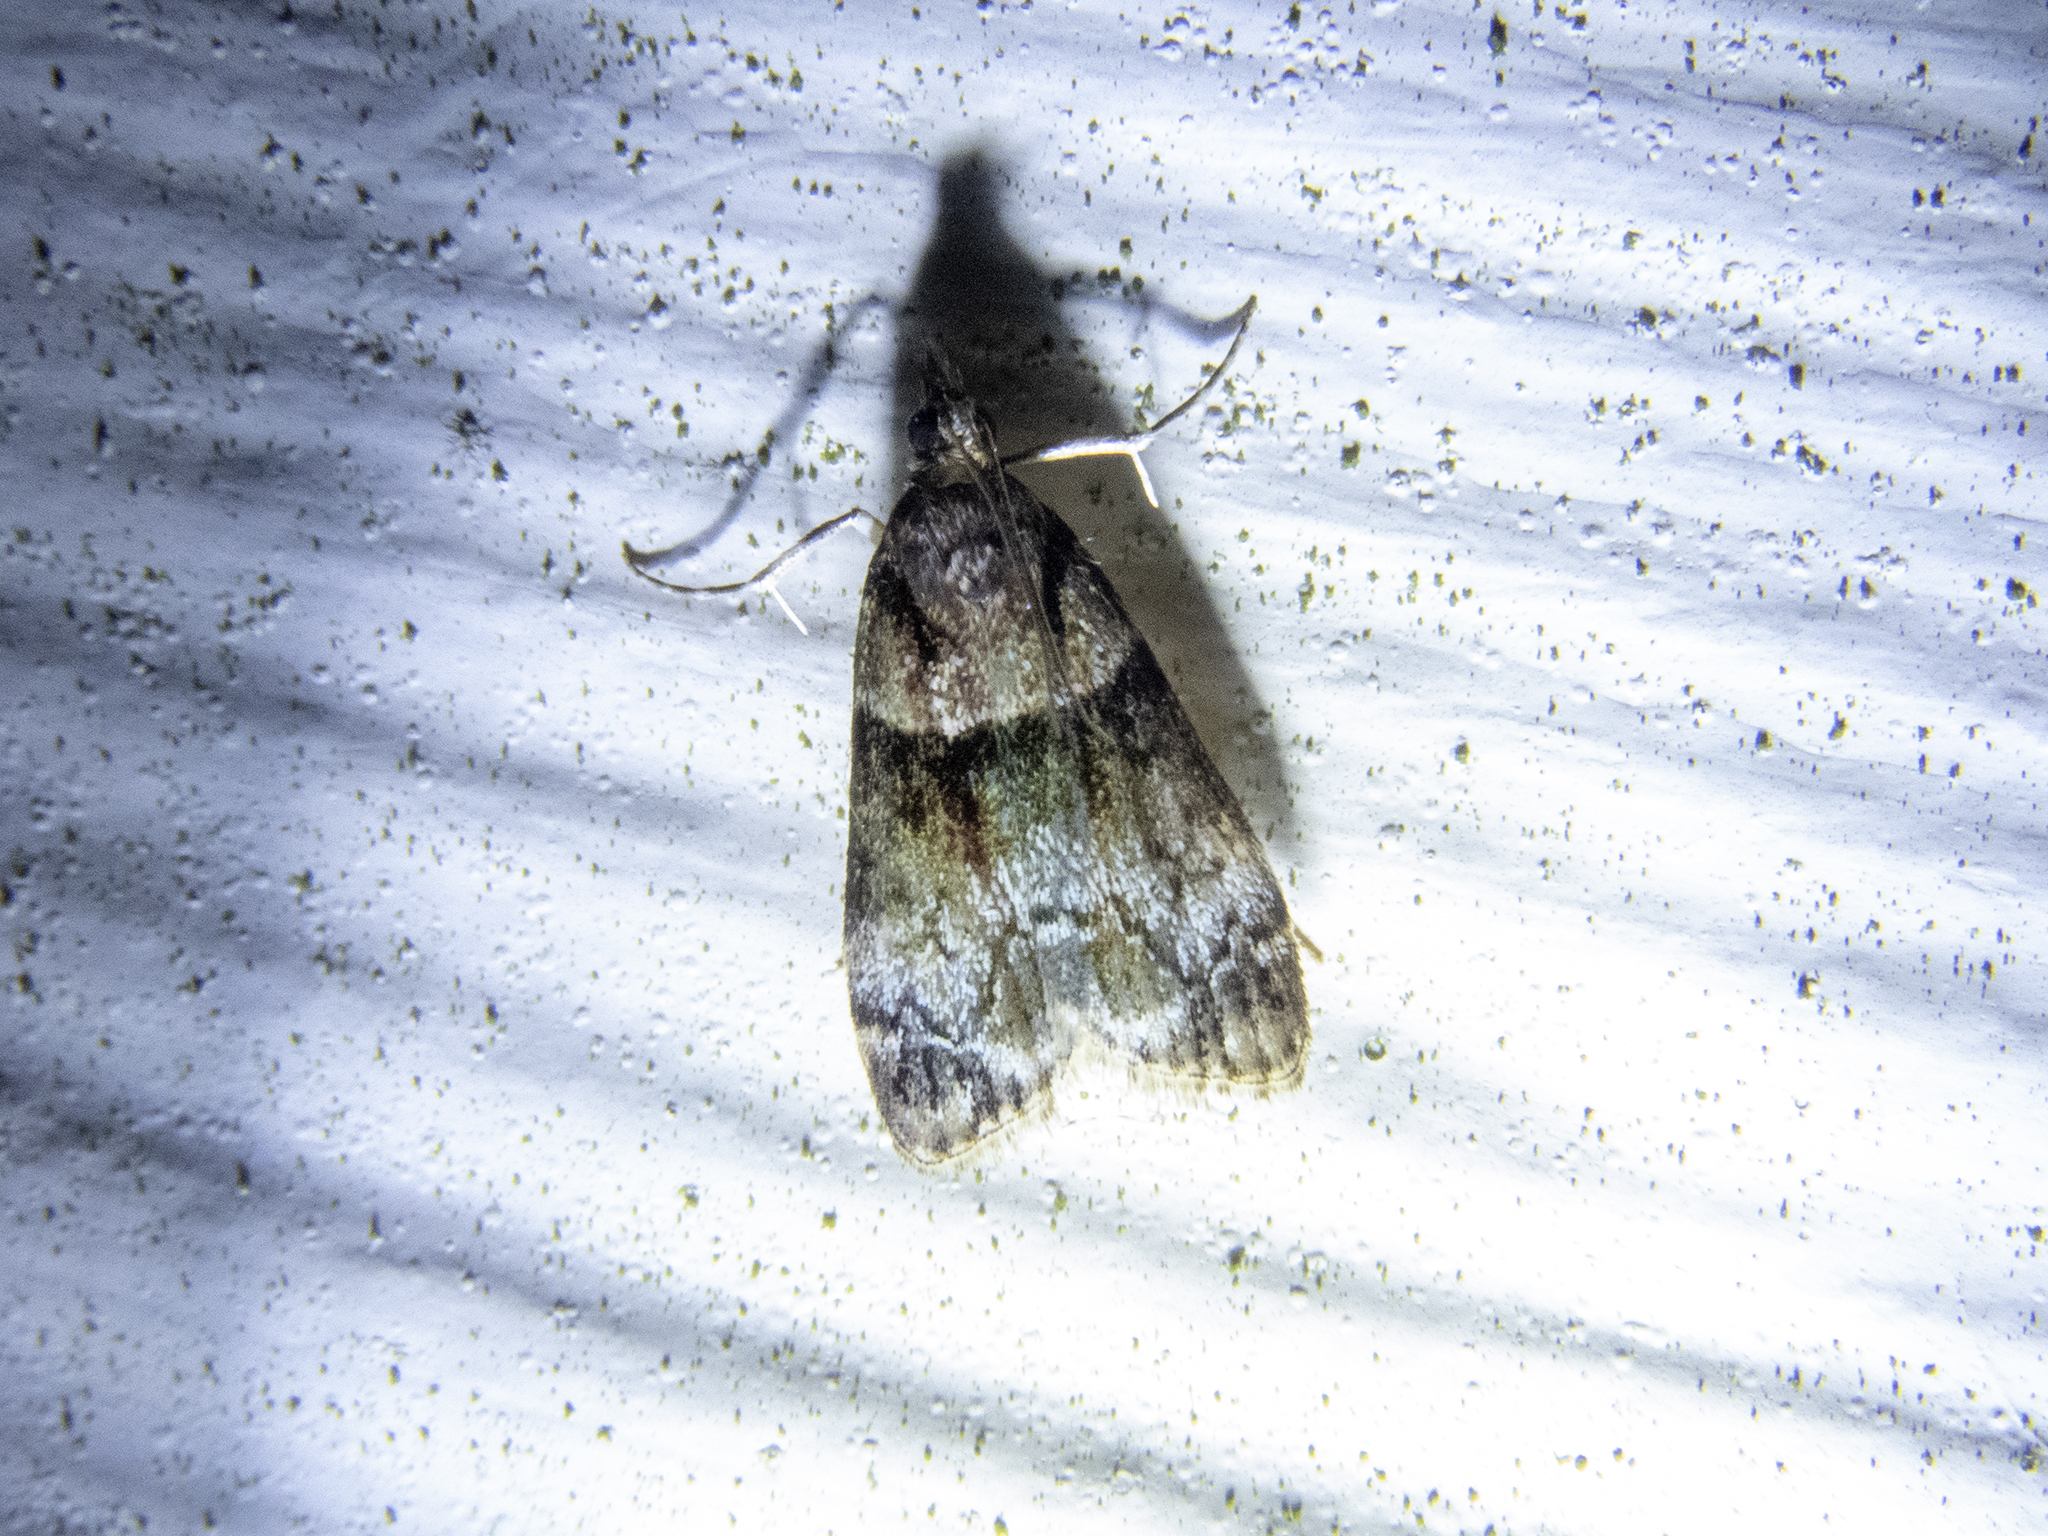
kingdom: Animalia
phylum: Arthropoda
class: Insecta
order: Lepidoptera
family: Crambidae
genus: Eudonia
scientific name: Eudonia colpota
